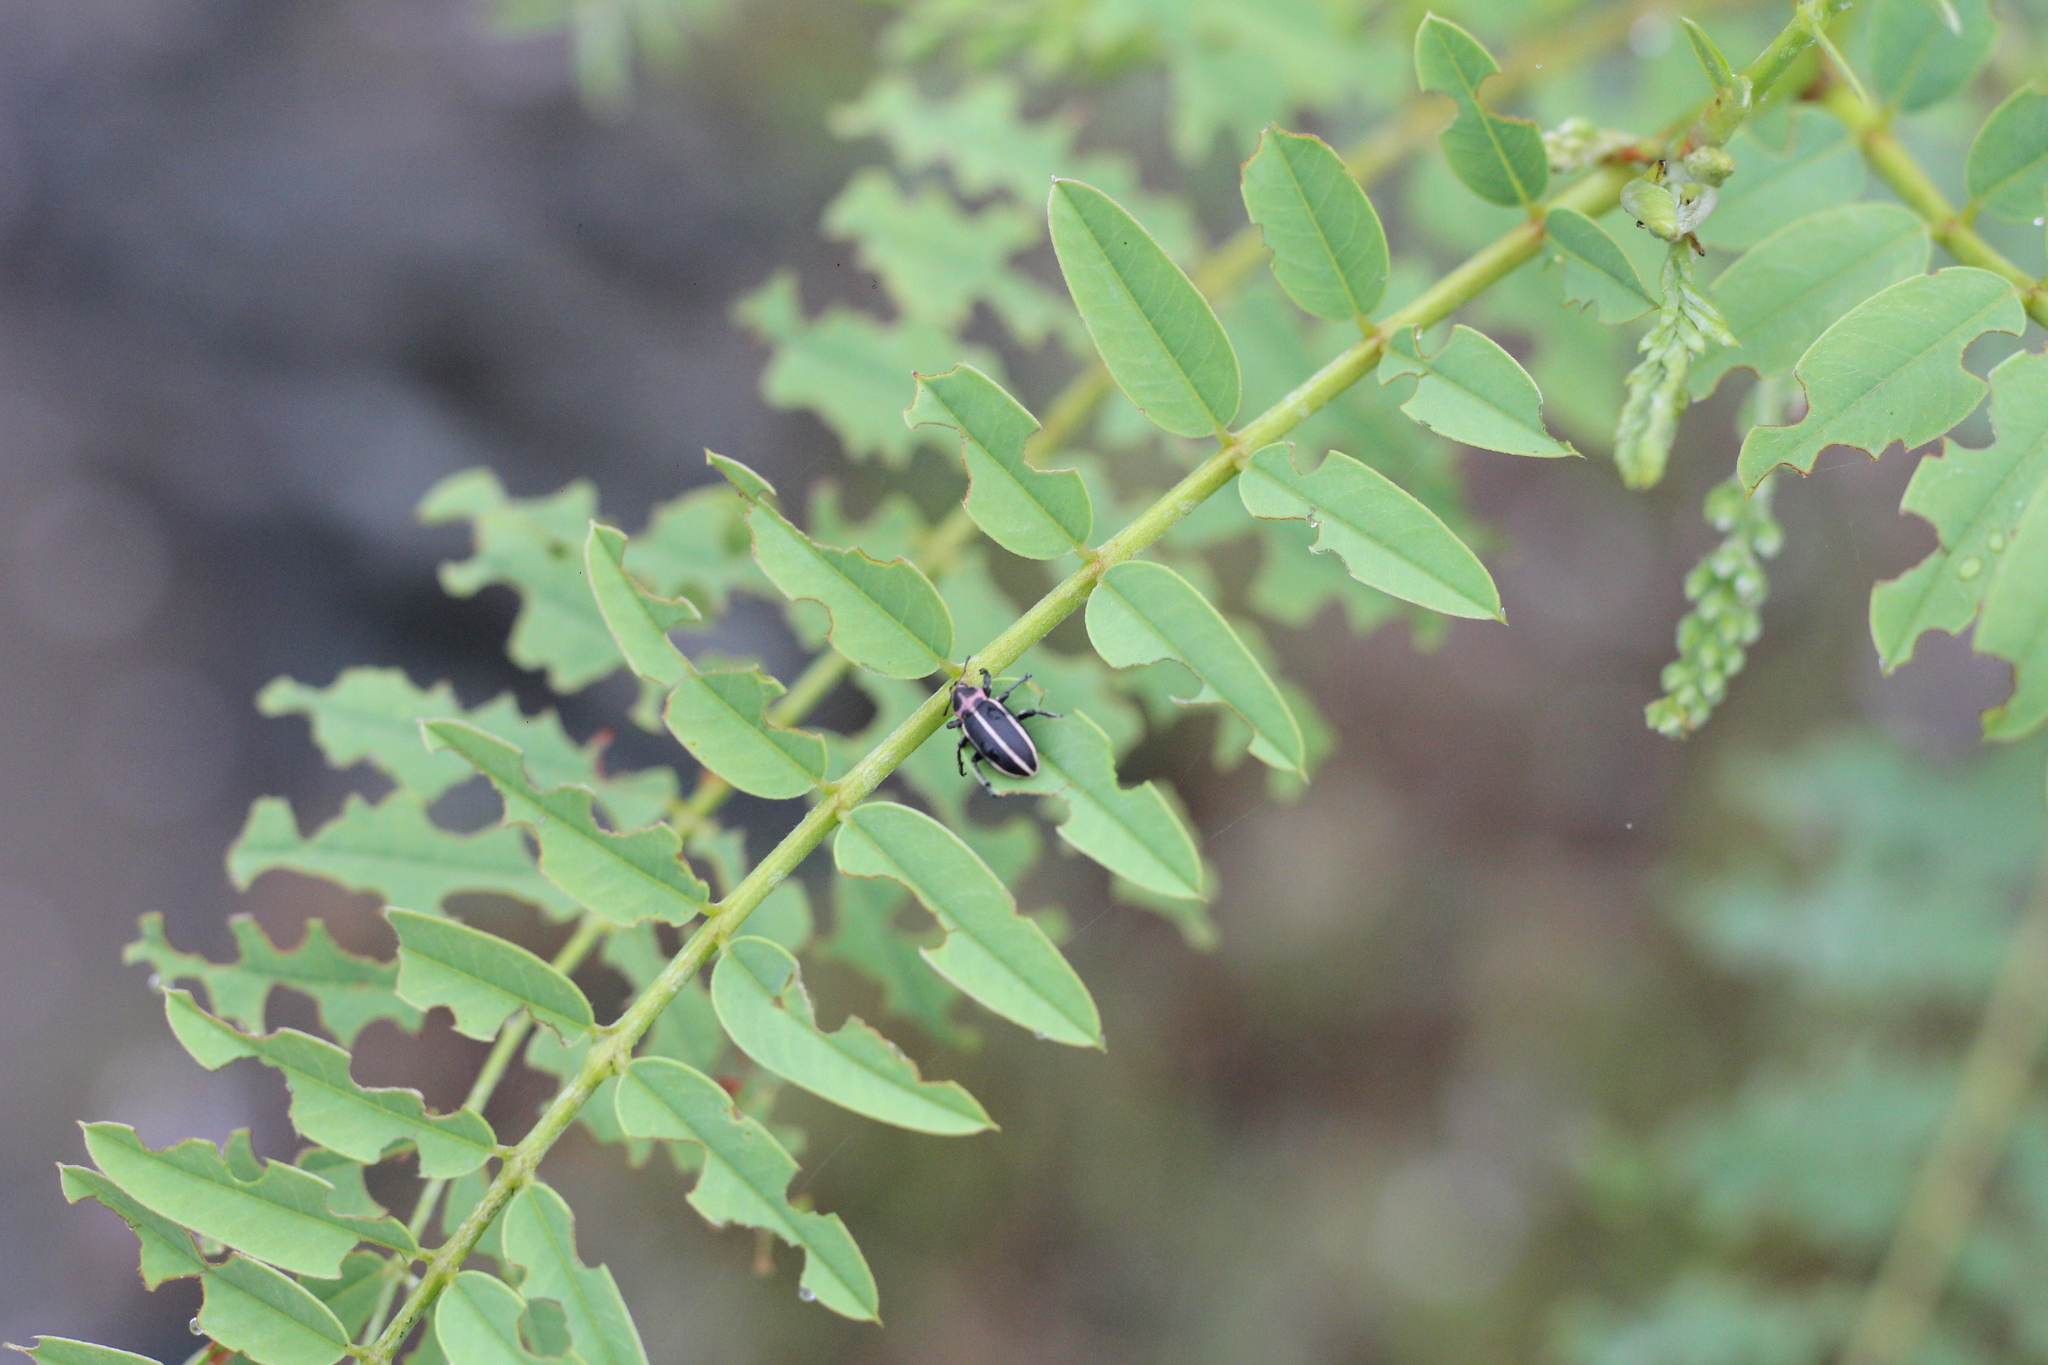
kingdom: Animalia
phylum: Arthropoda
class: Insecta
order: Coleoptera
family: Curculionidae
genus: Eudiagogus
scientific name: Eudiagogus episcopalis
